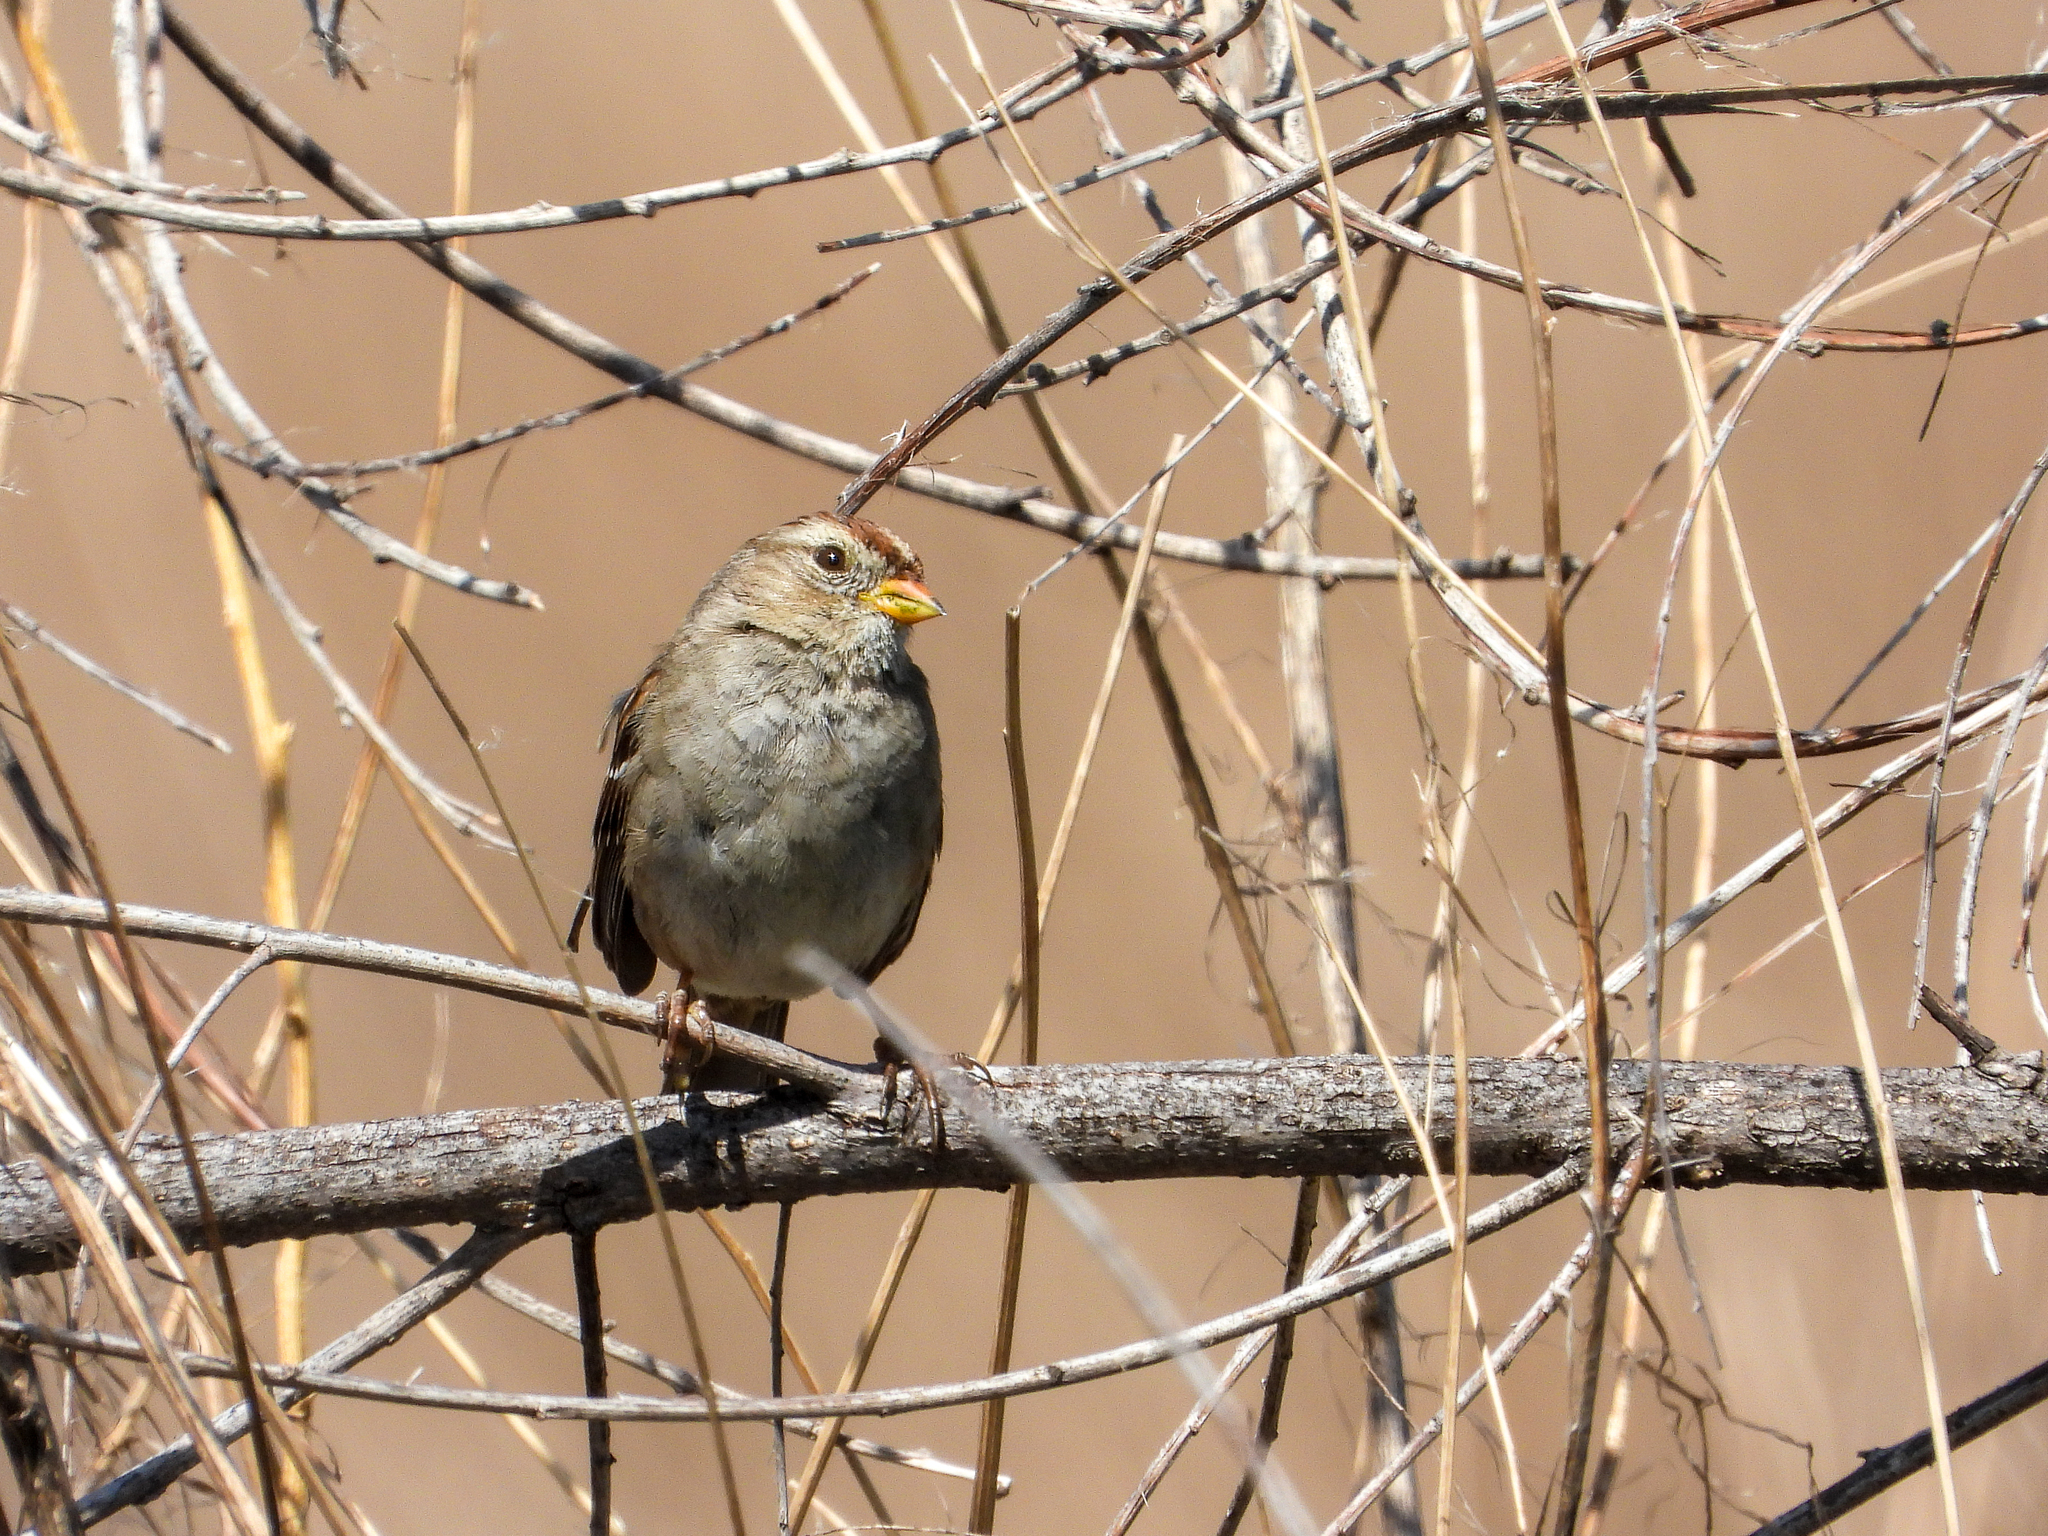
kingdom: Animalia
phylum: Chordata
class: Aves
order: Passeriformes
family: Passerellidae
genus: Zonotrichia
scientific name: Zonotrichia leucophrys
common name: White-crowned sparrow
